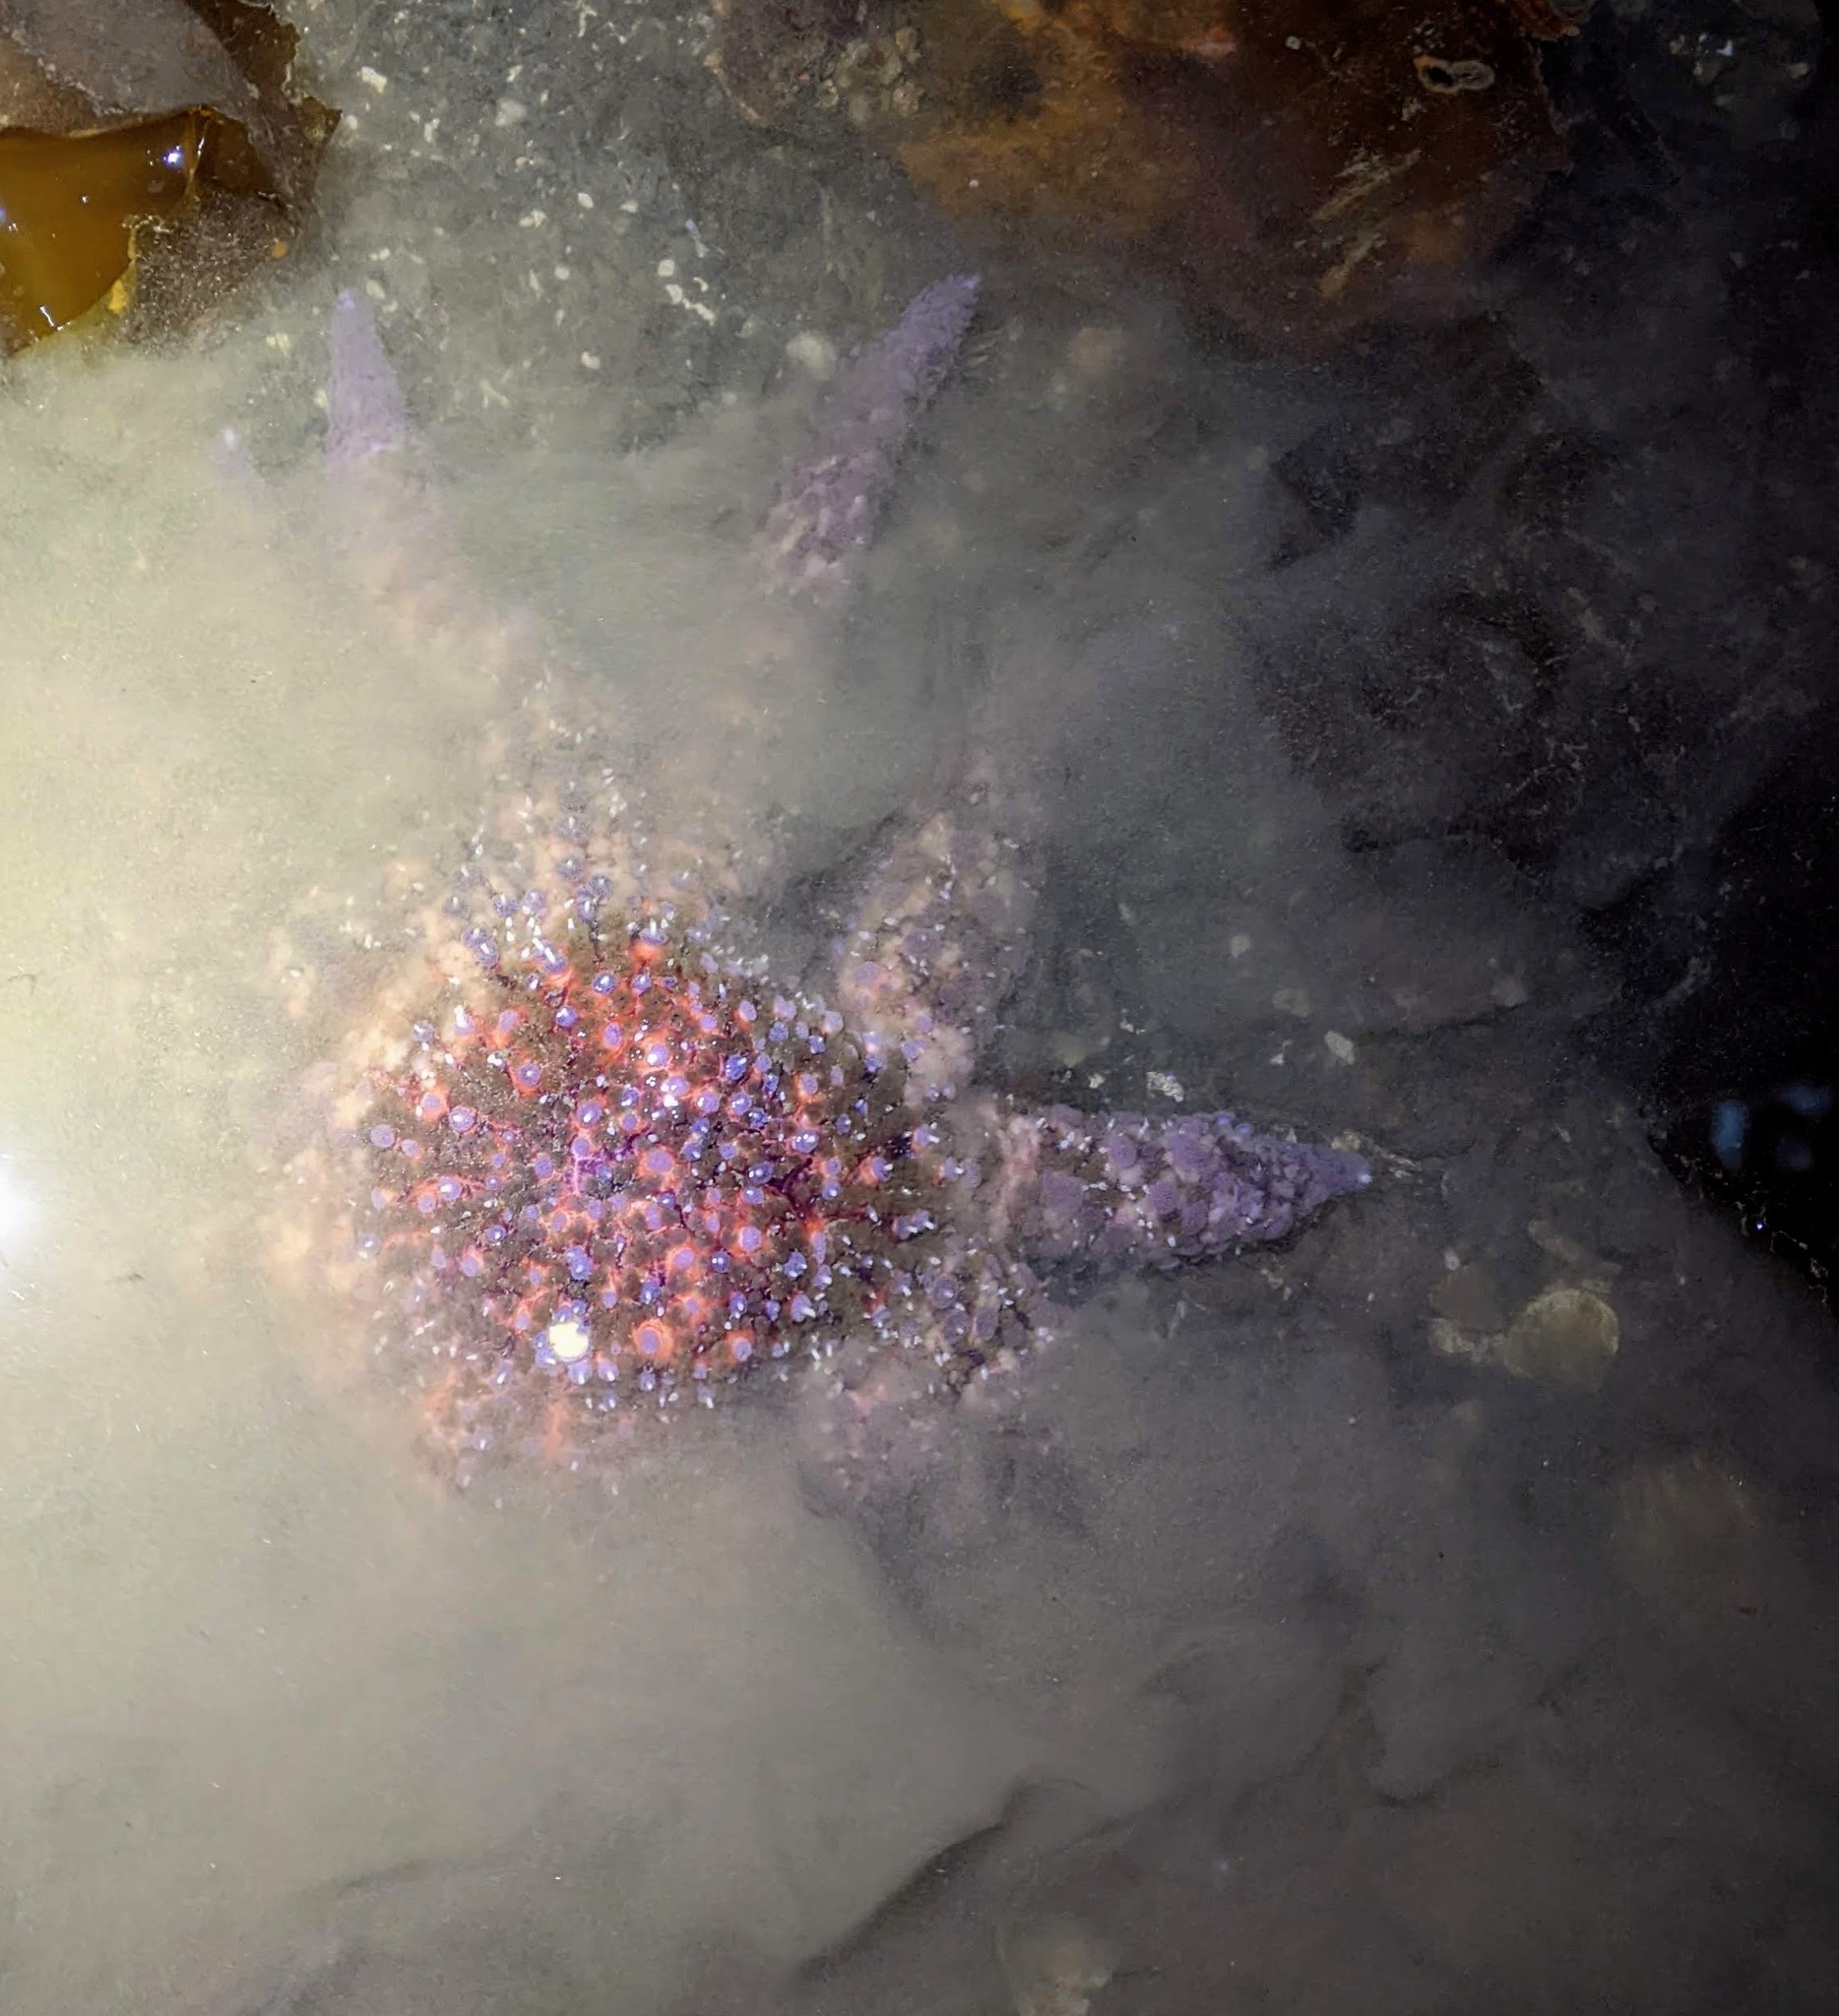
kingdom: Animalia
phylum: Echinodermata
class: Asteroidea
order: Forcipulatida
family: Asteriidae
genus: Pycnopodia
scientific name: Pycnopodia helianthoides
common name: Rag mop
